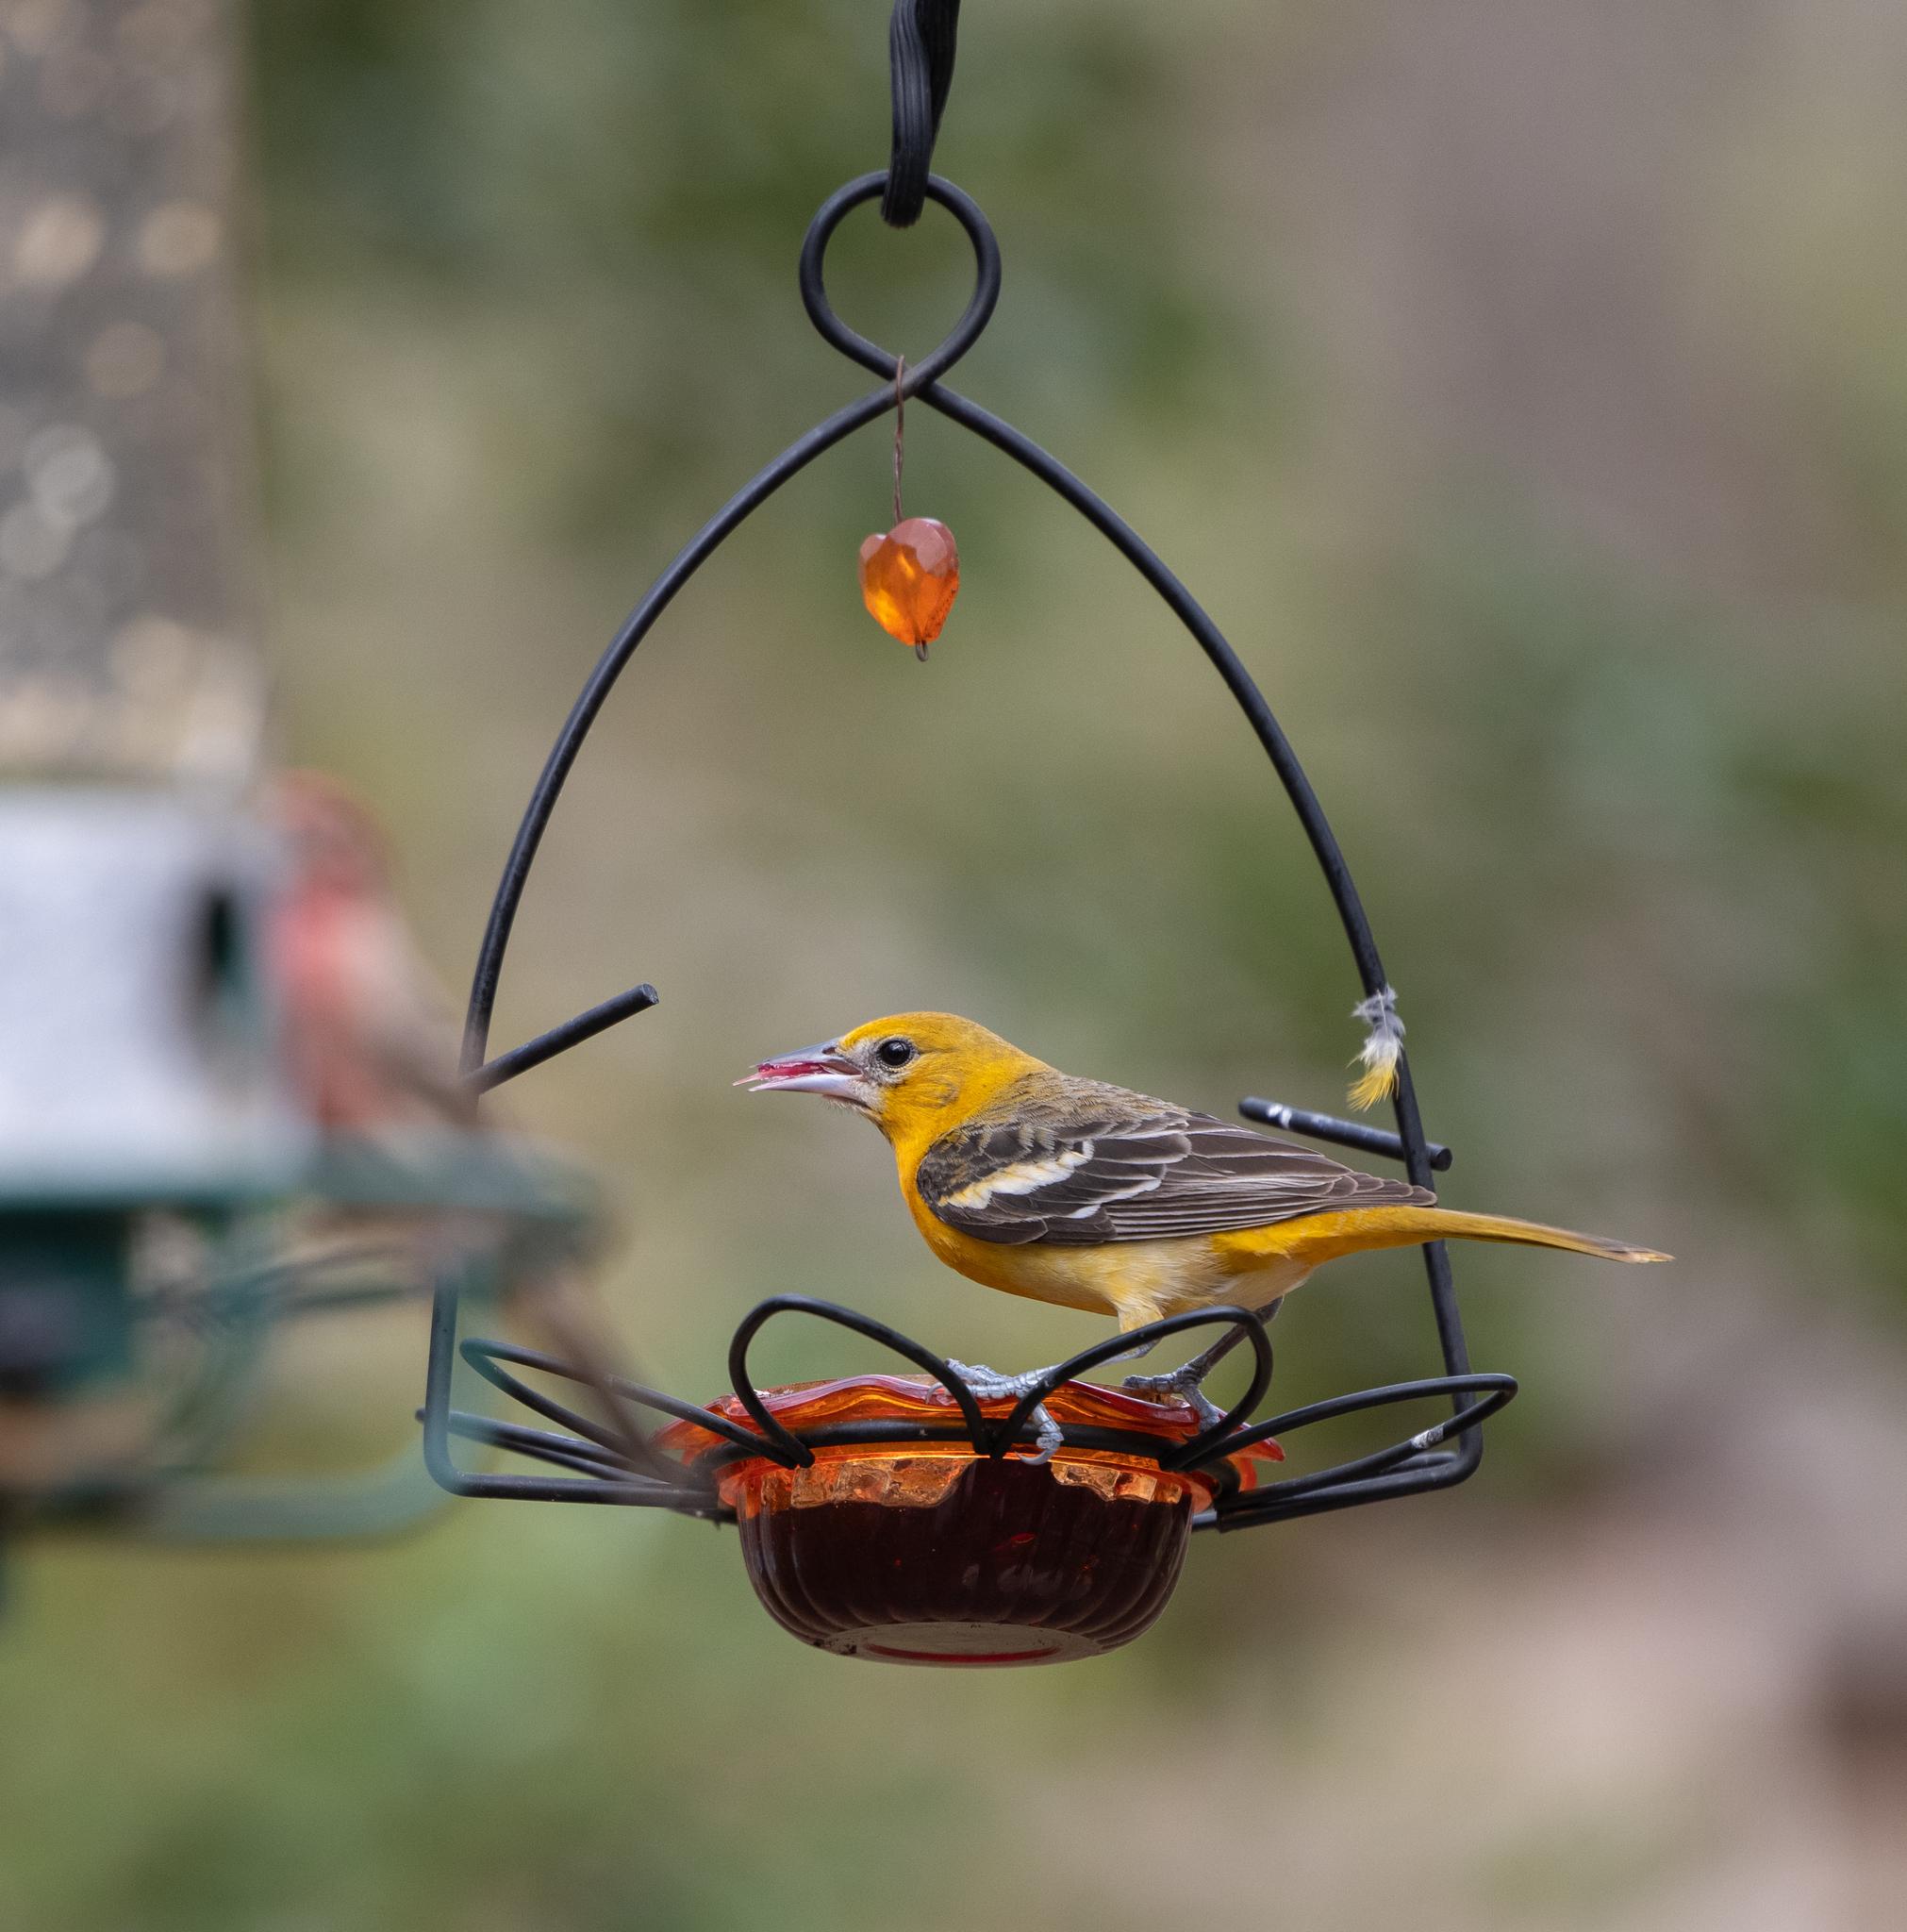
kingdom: Animalia
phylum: Chordata
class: Aves
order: Passeriformes
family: Icteridae
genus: Icterus
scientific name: Icterus galbula
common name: Baltimore oriole
